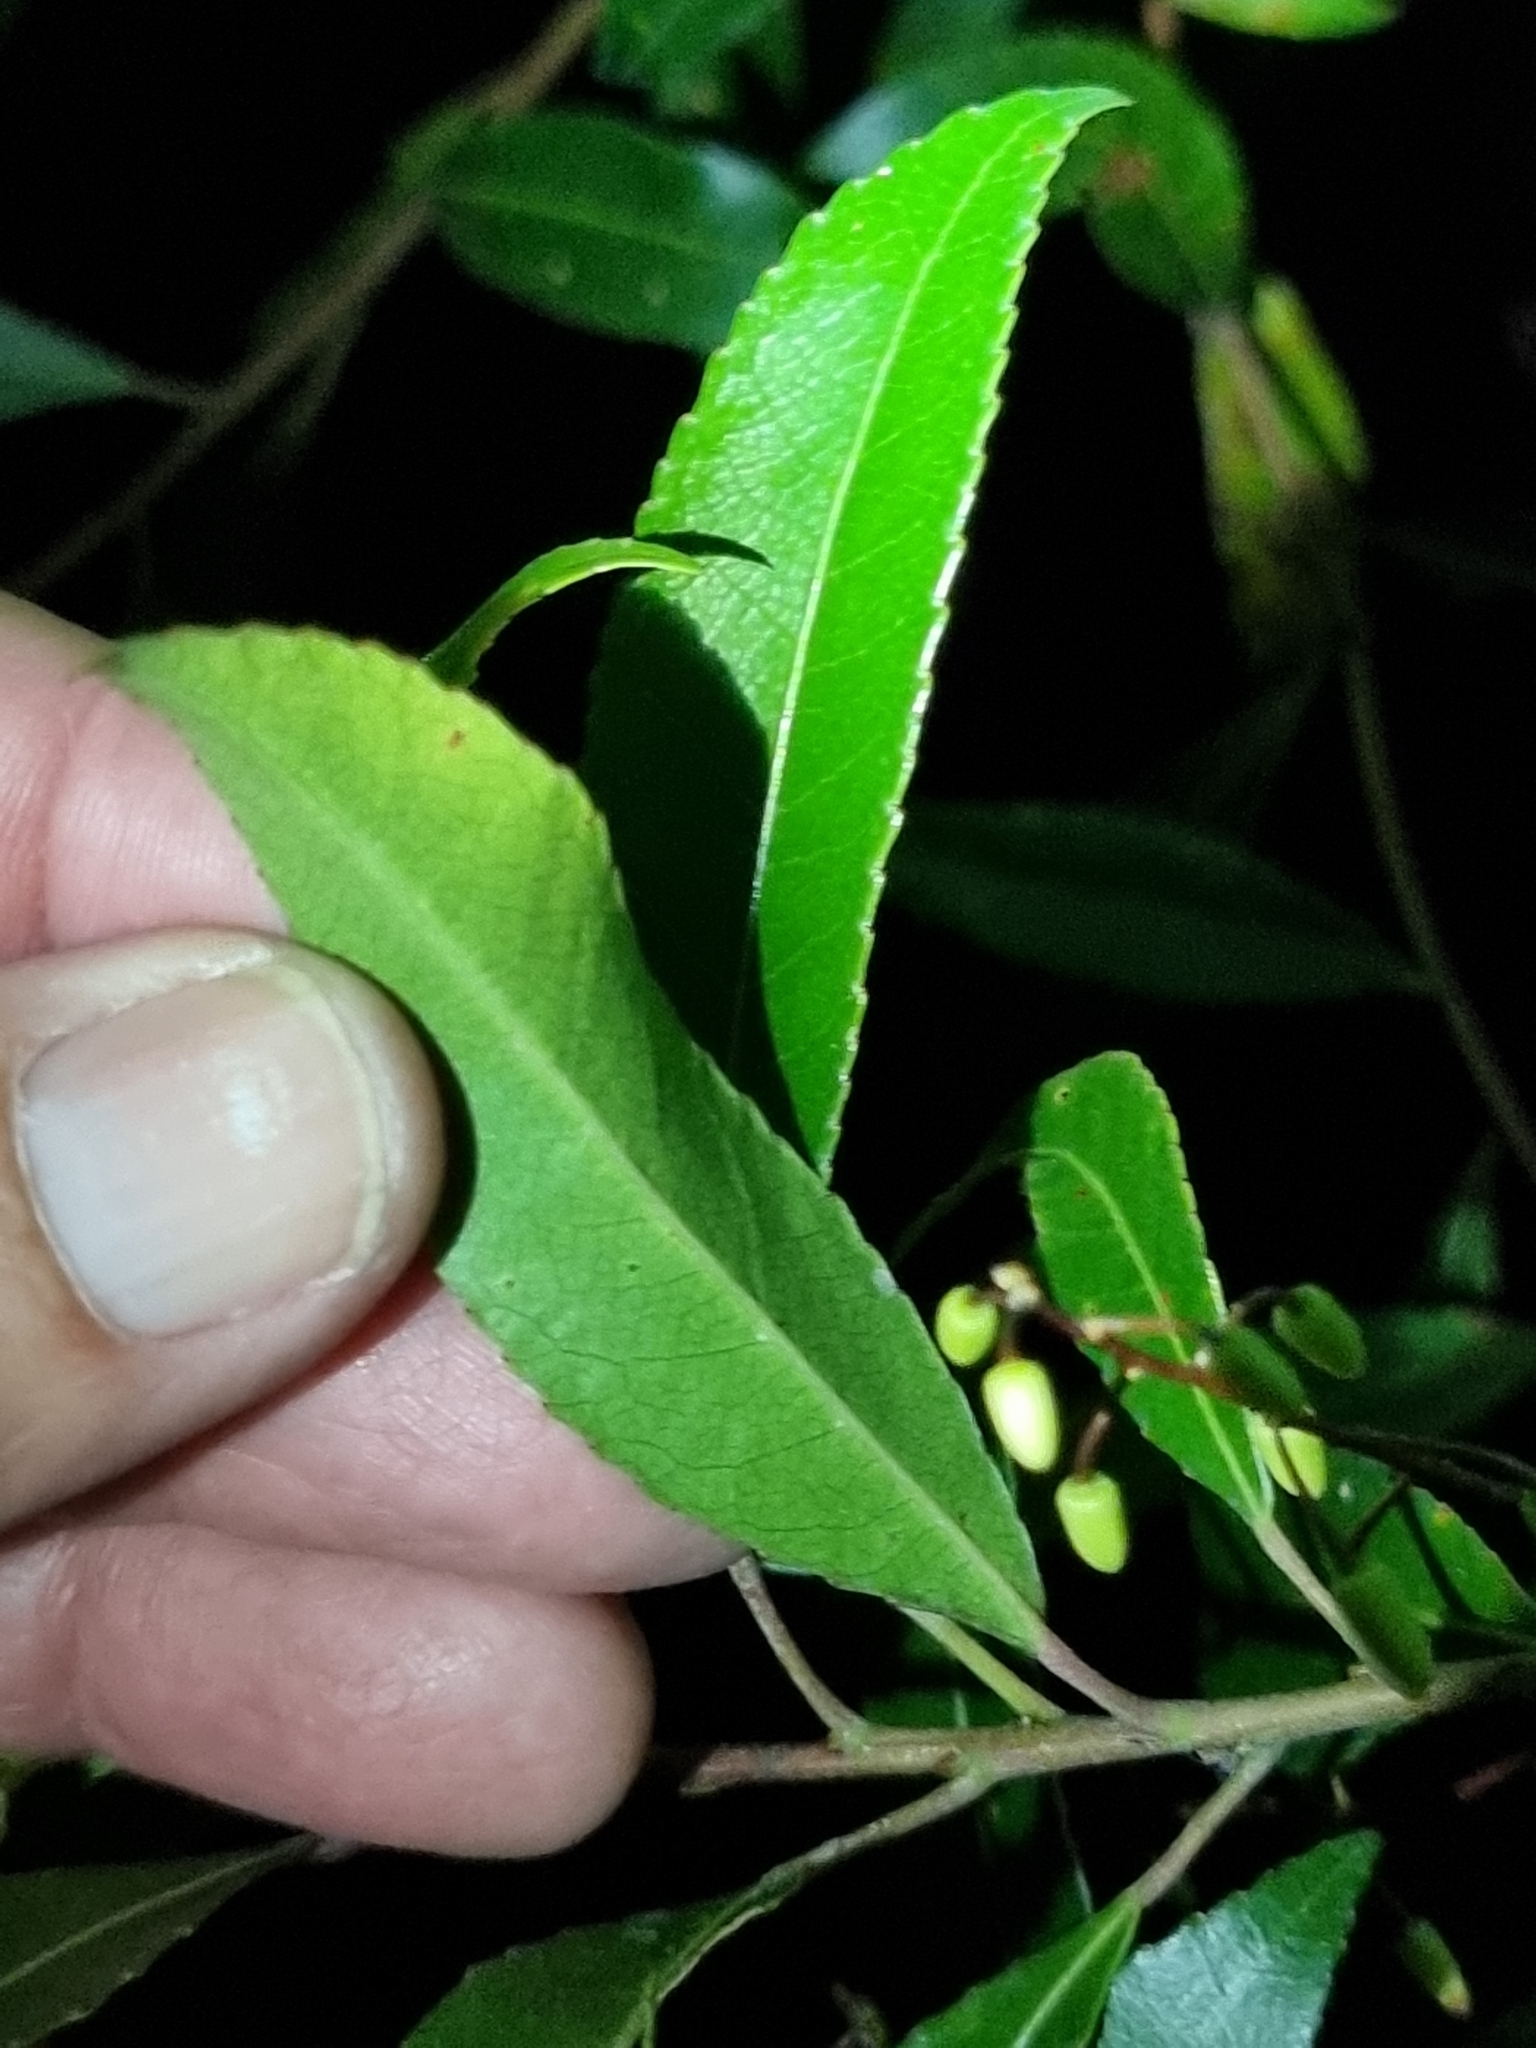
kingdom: Plantae
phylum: Tracheophyta
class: Magnoliopsida
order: Oxalidales
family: Elaeocarpaceae
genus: Elaeocarpus
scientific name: Elaeocarpus reticulatus
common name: Ash quandong
